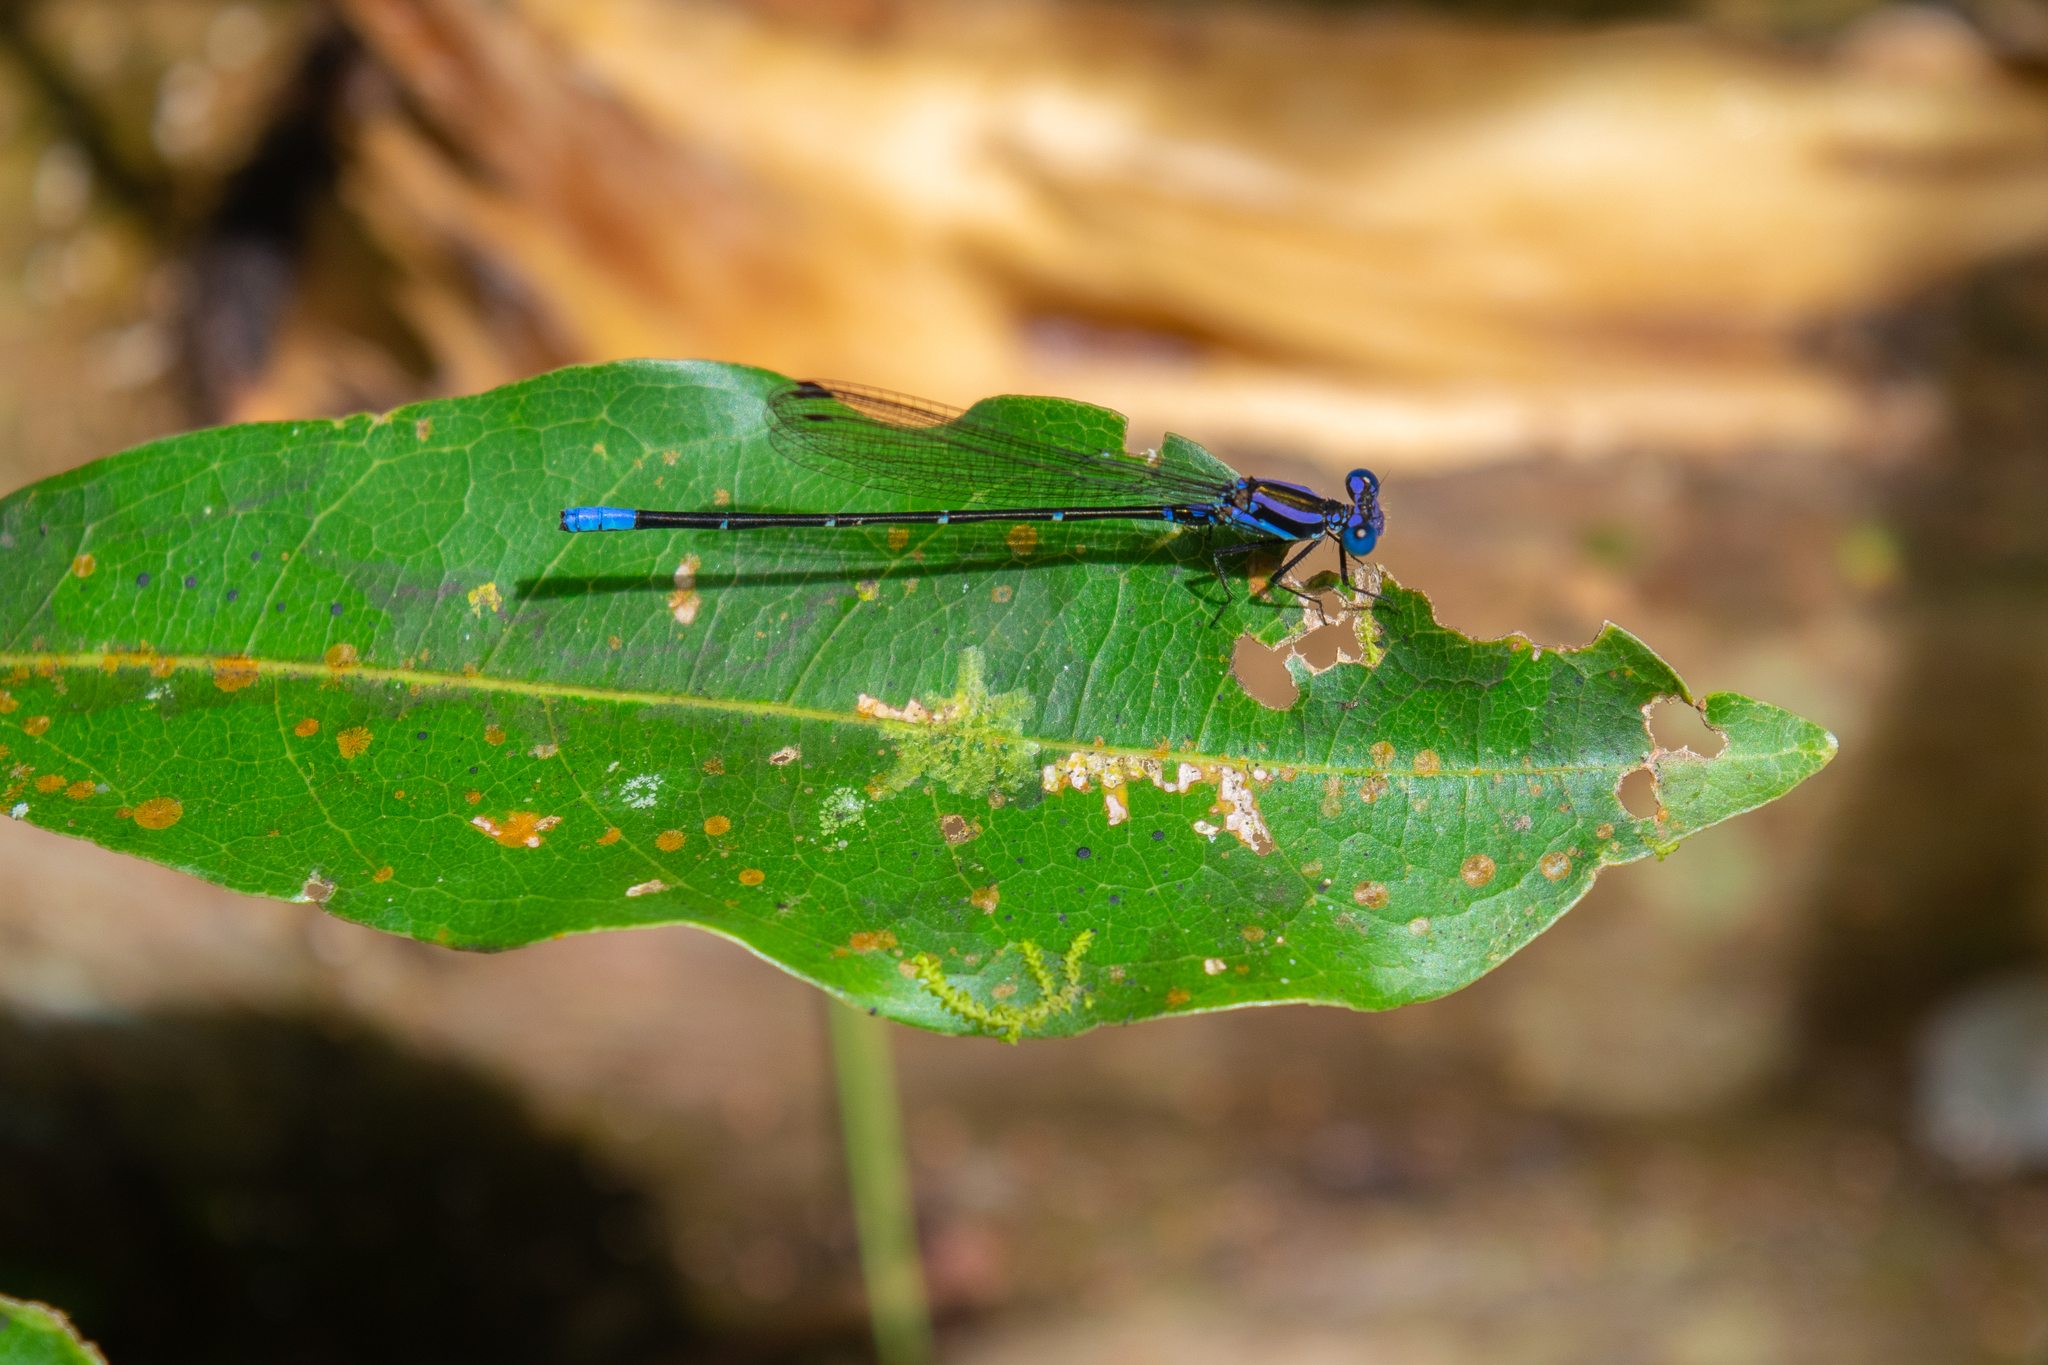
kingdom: Animalia
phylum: Arthropoda
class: Insecta
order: Odonata
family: Coenagrionidae
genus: Argia
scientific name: Argia pulla
